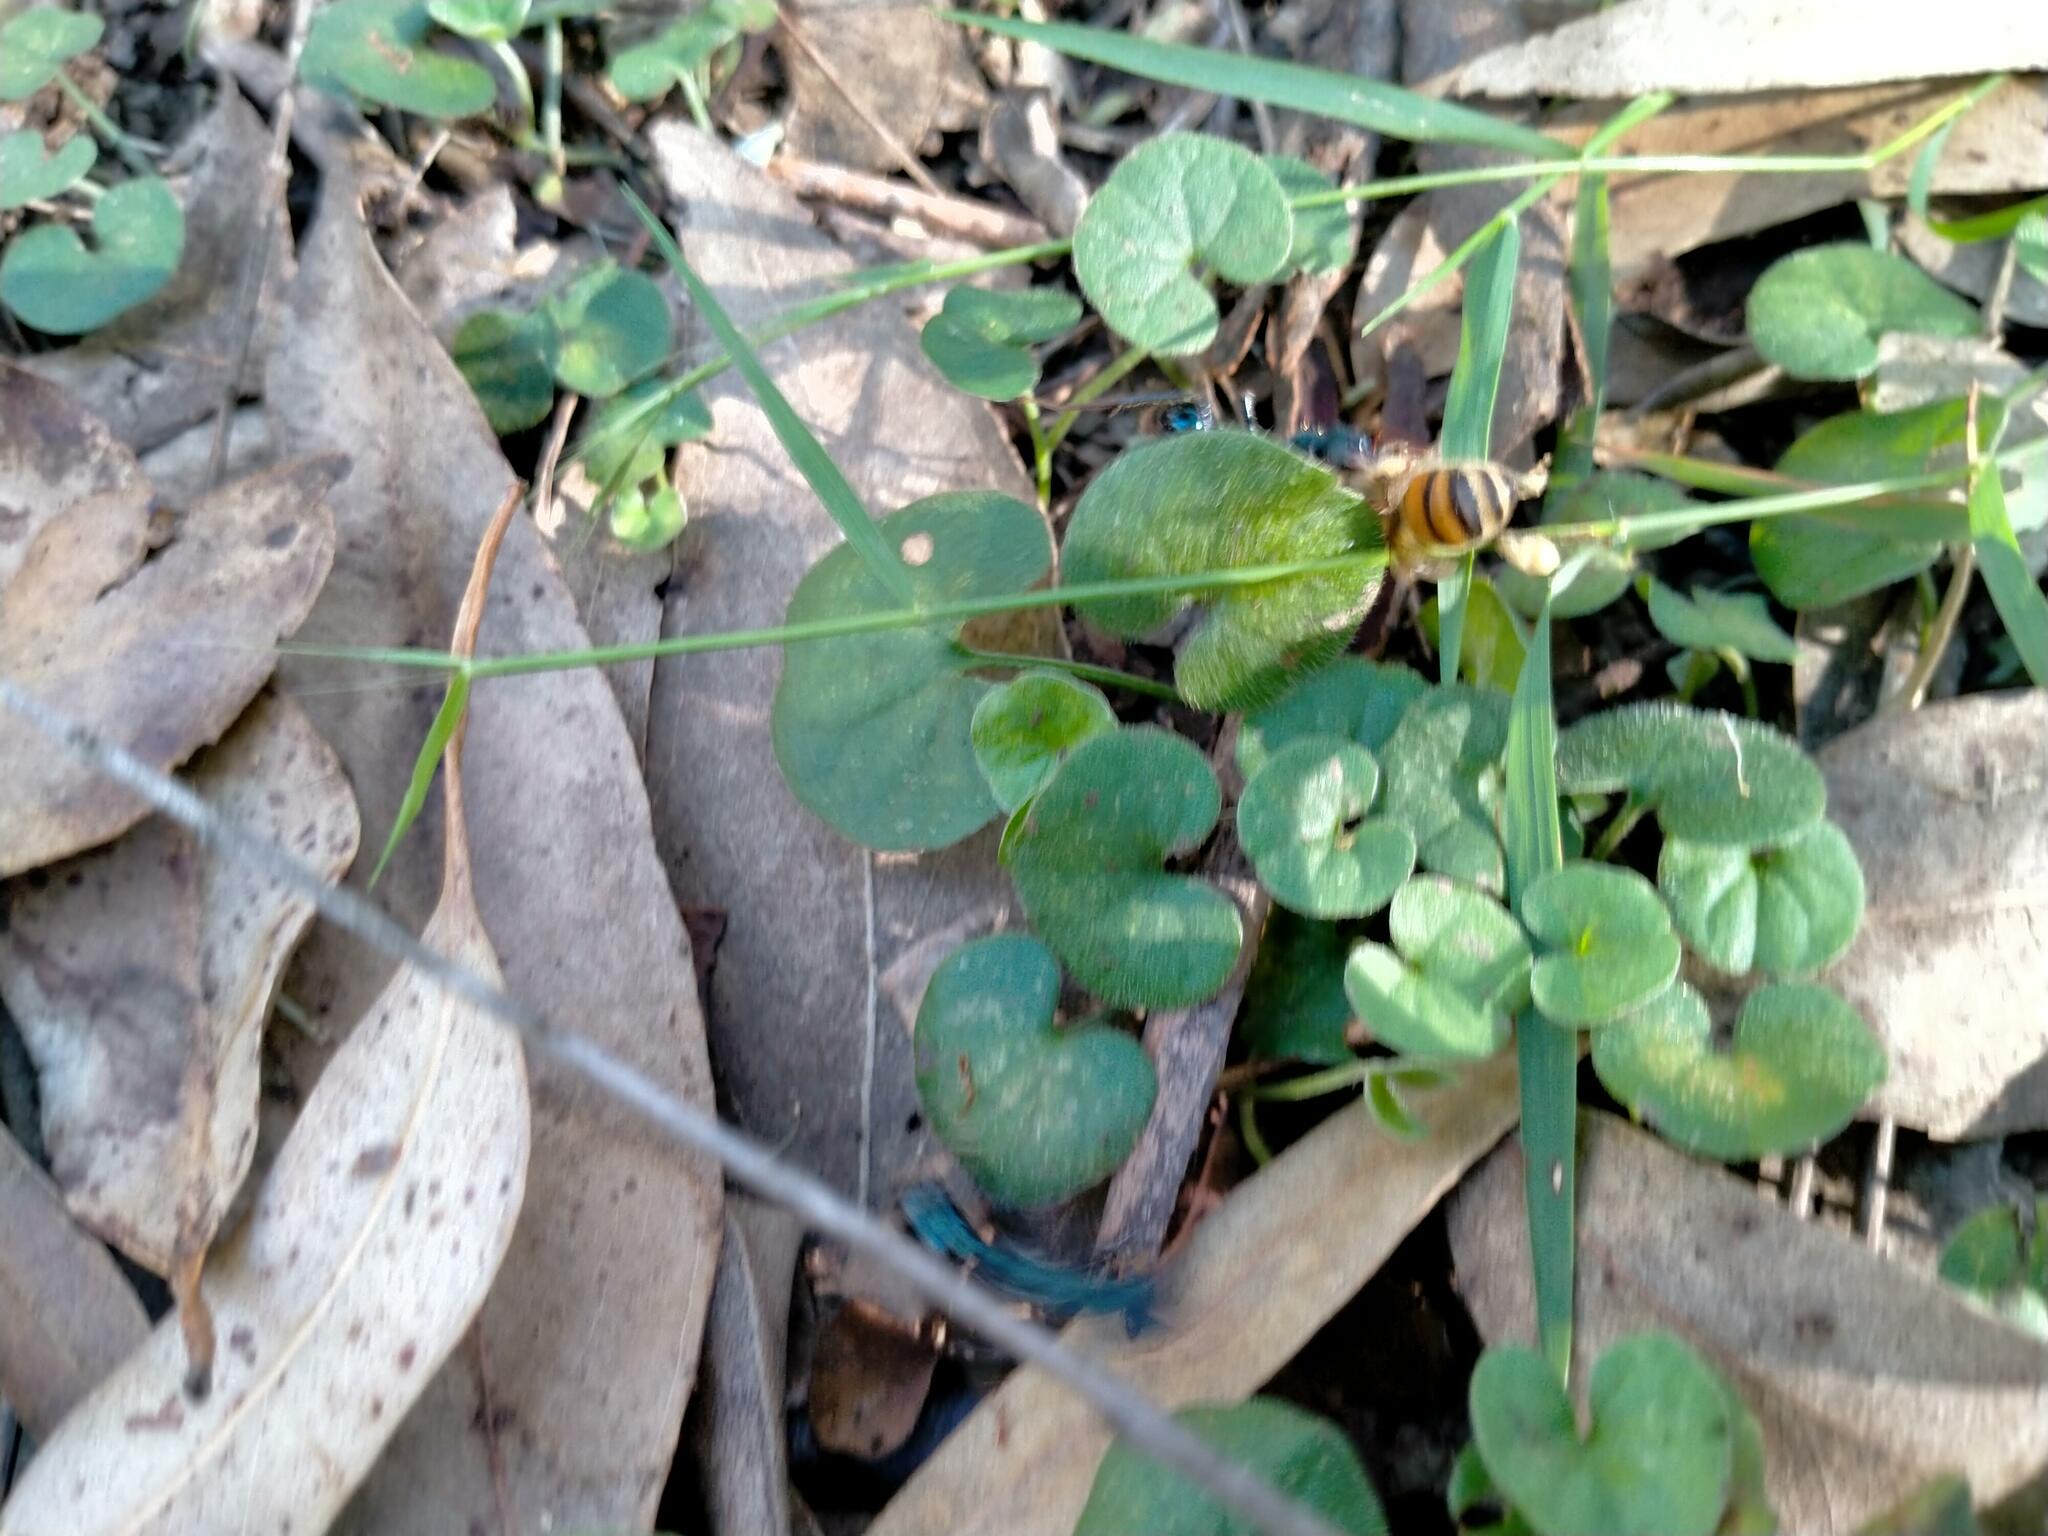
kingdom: Animalia
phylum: Arthropoda
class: Insecta
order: Hymenoptera
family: Apidae
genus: Apis
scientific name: Apis mellifera
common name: Honey bee
